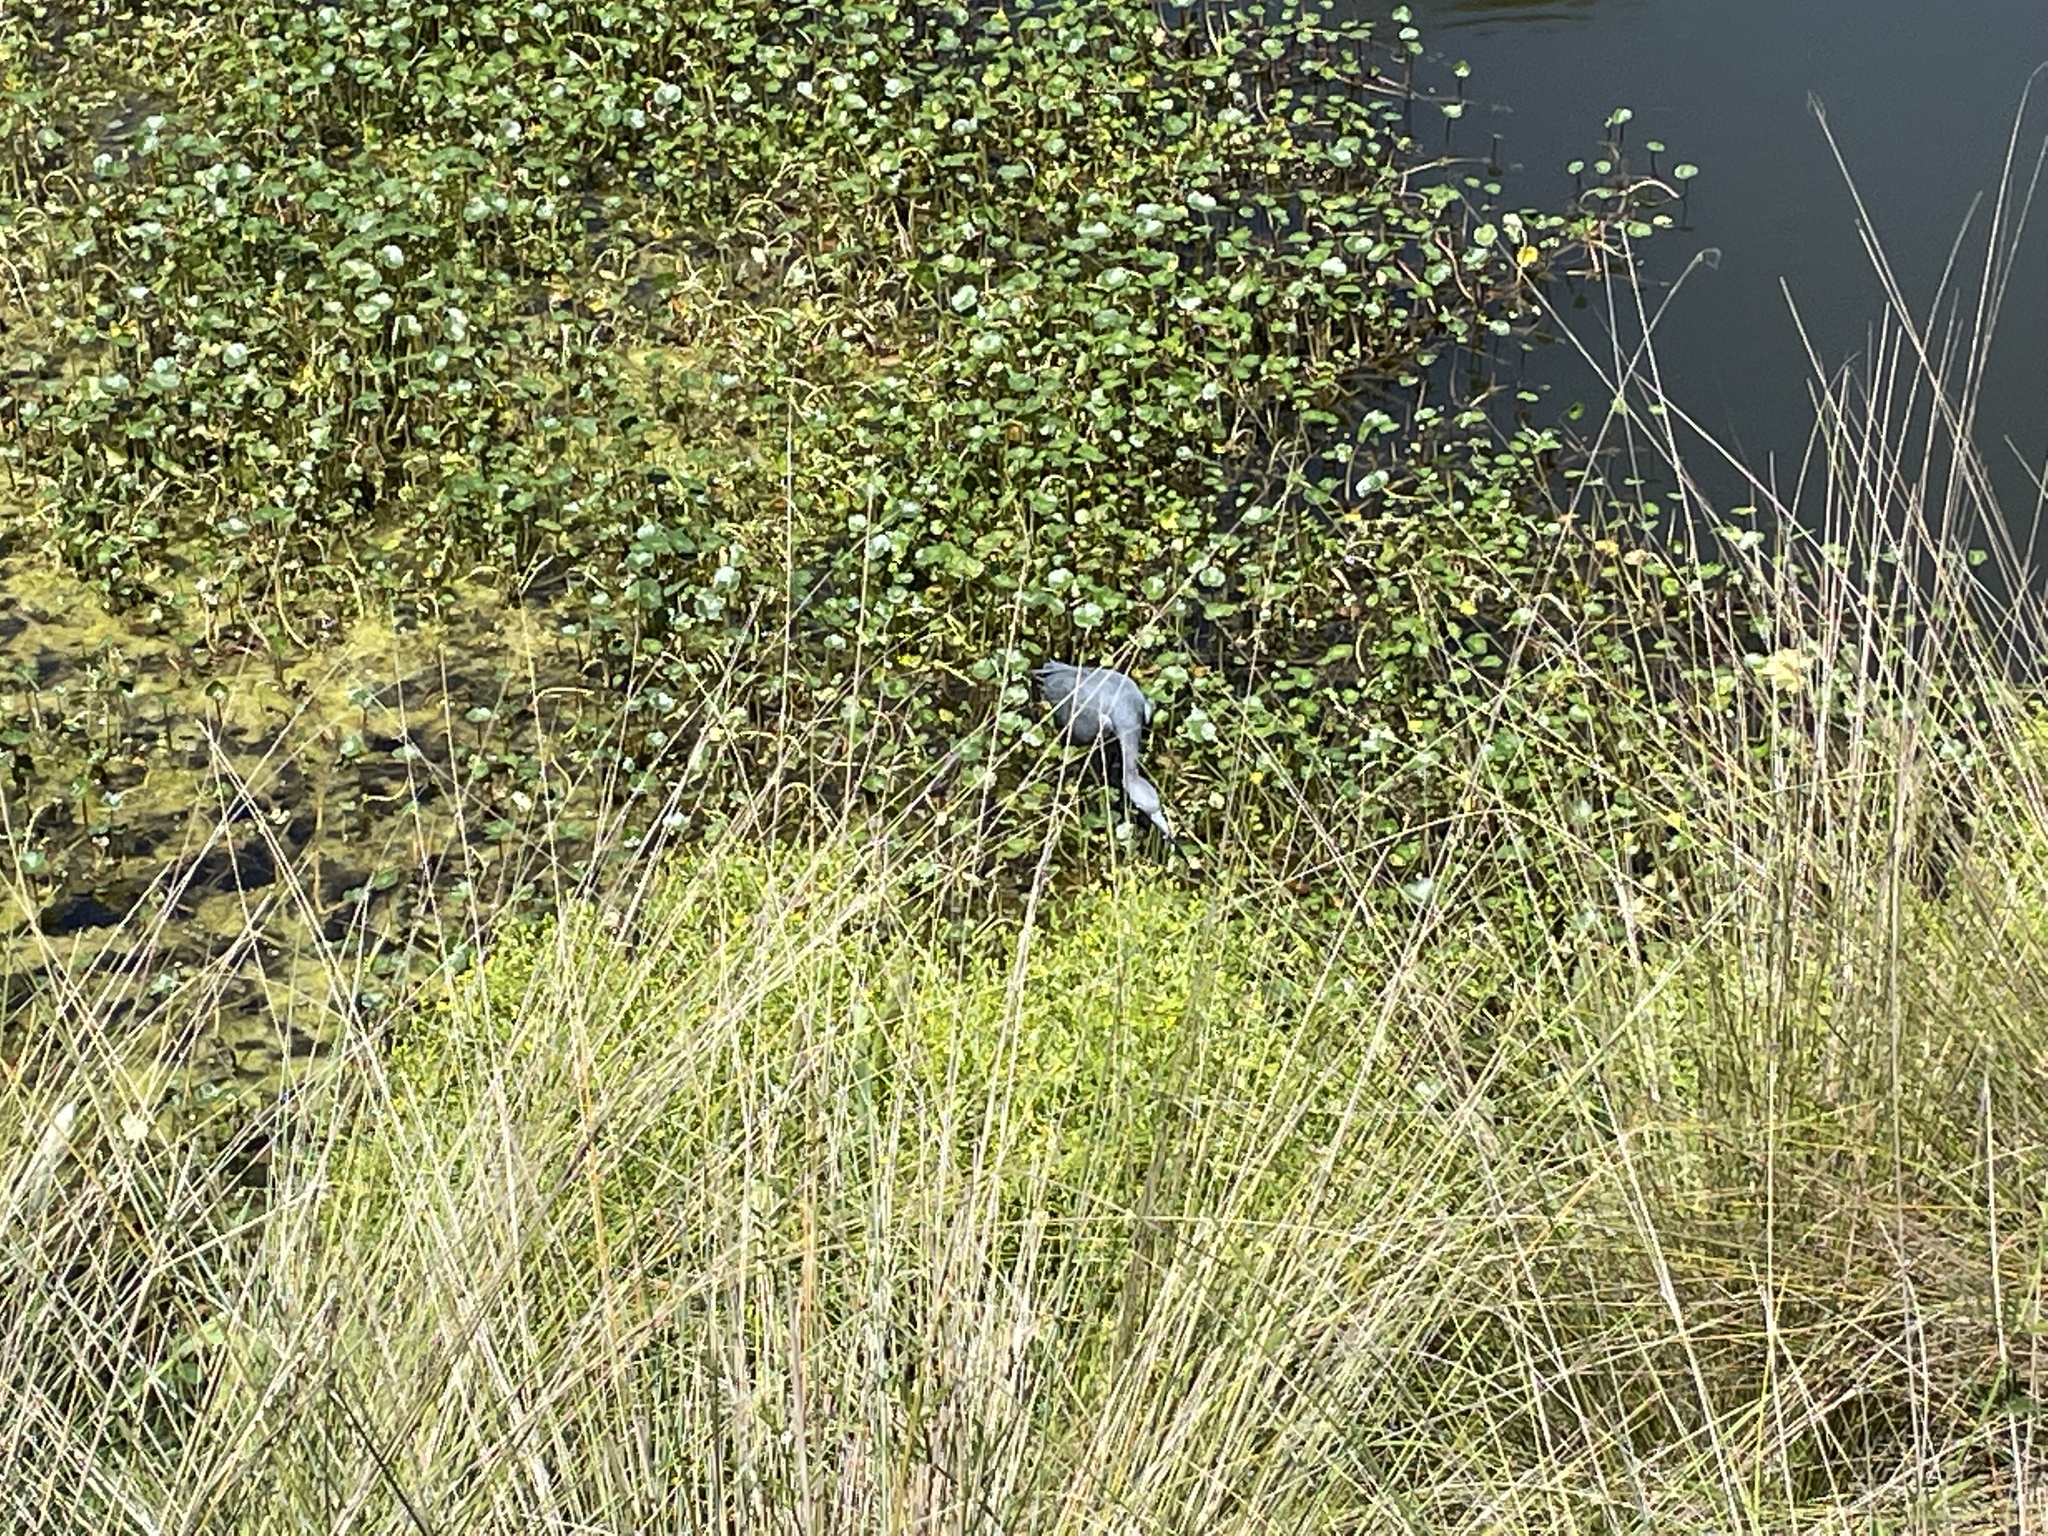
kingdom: Animalia
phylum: Chordata
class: Aves
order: Pelecaniformes
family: Ardeidae
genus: Egretta
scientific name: Egretta caerulea
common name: Little blue heron
